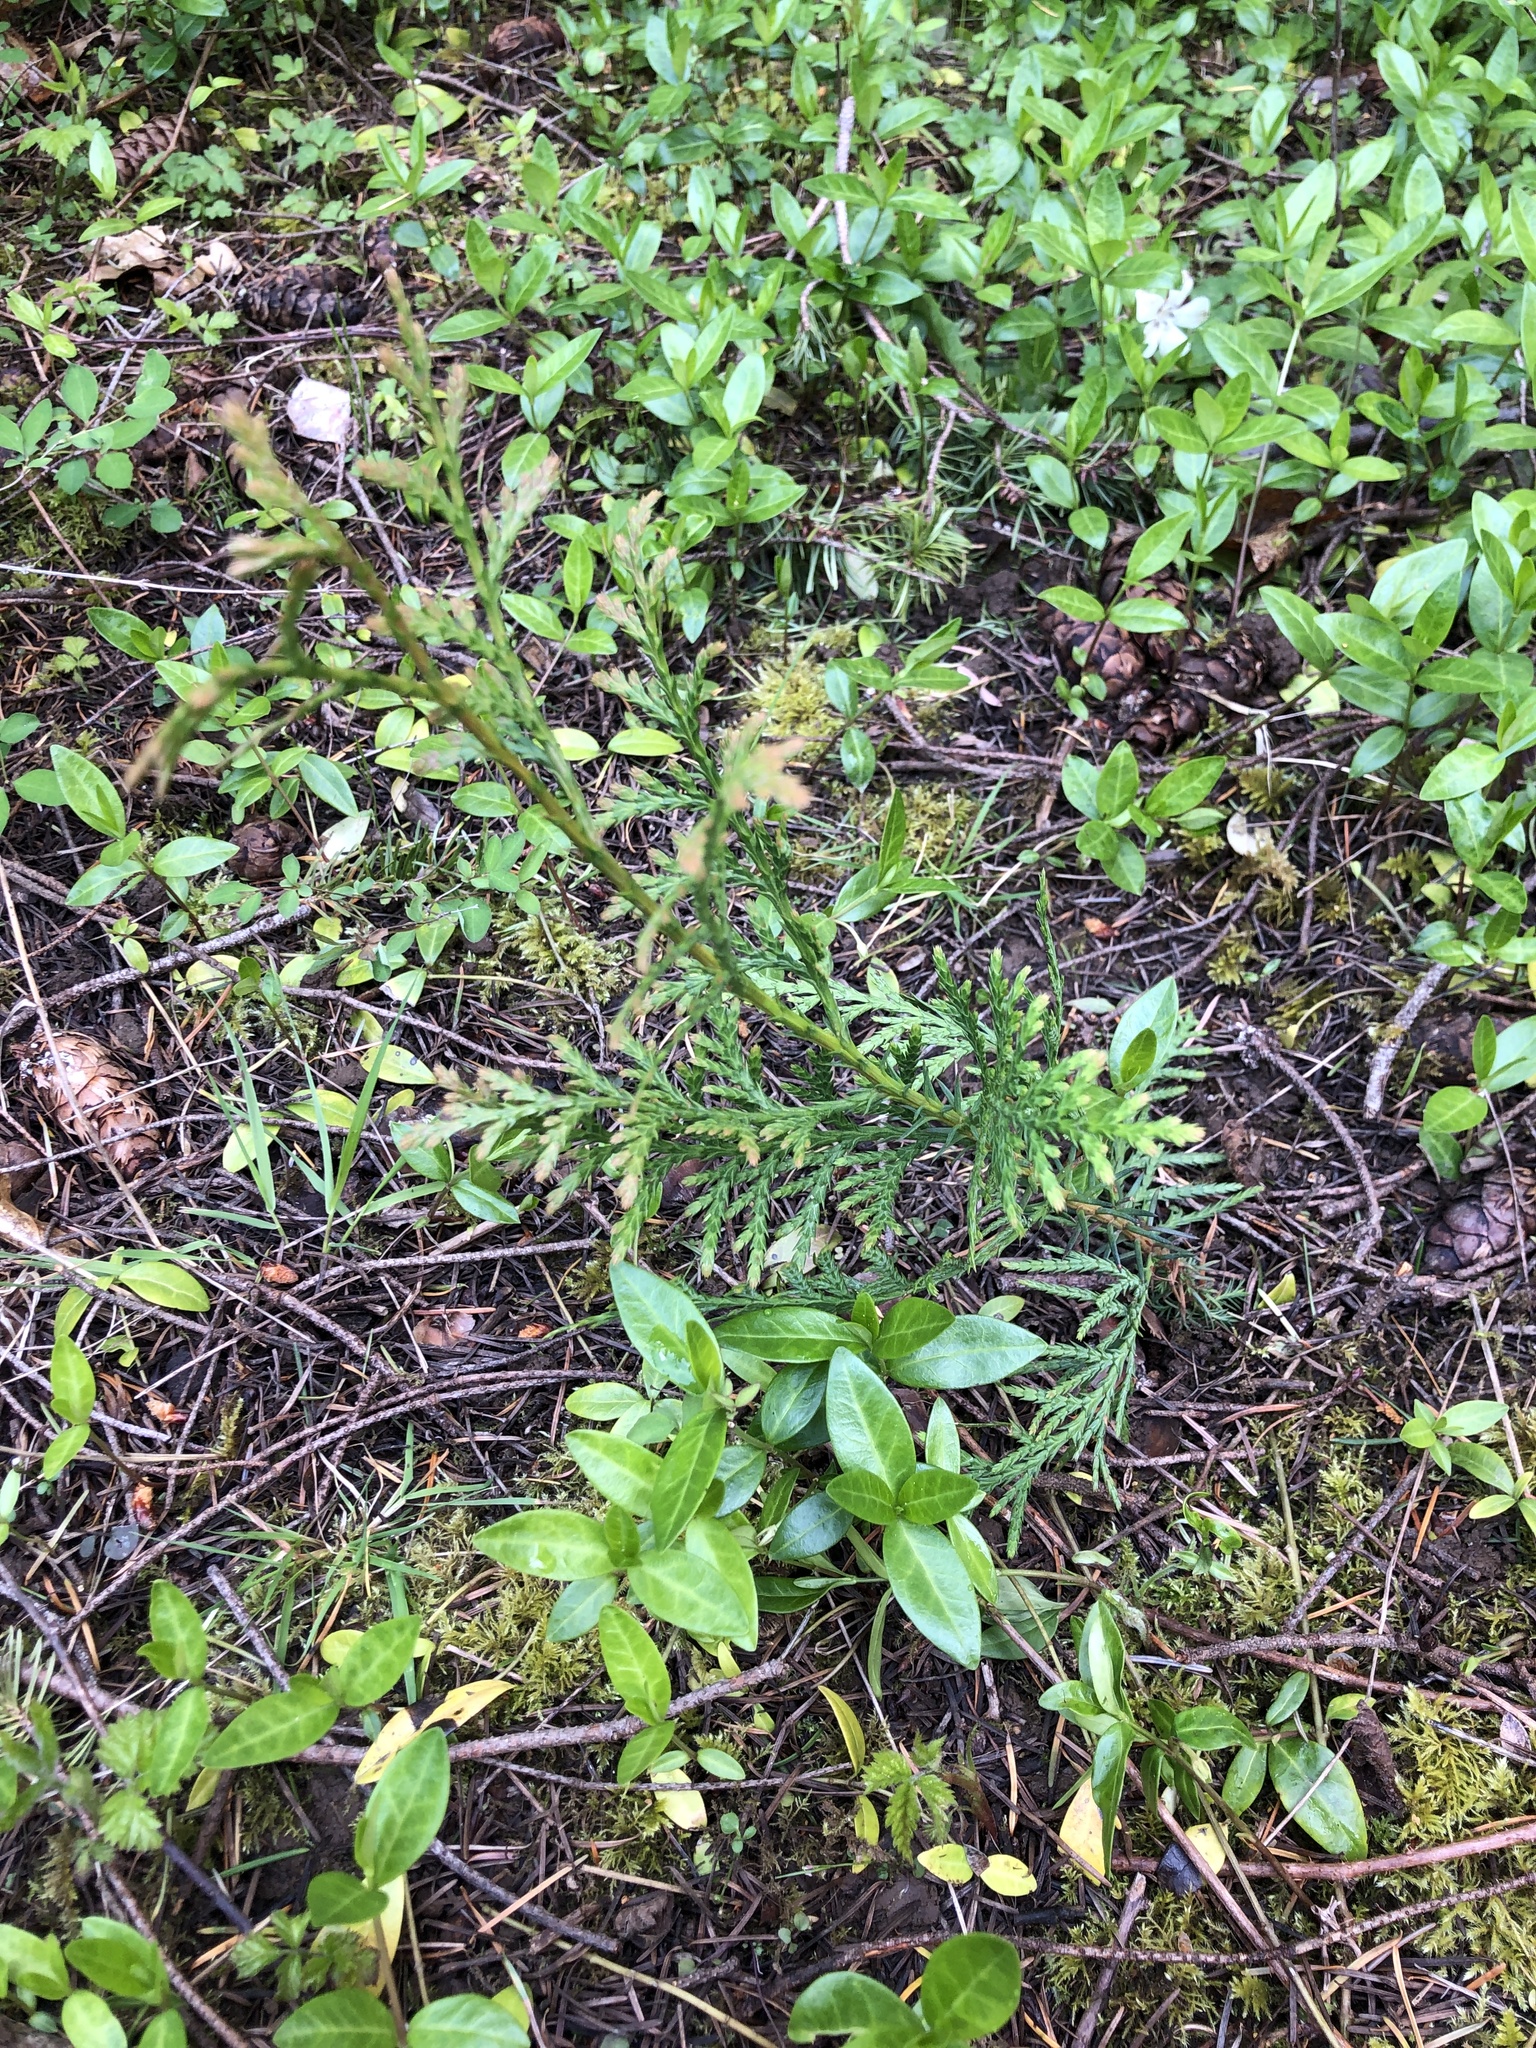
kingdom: Plantae
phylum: Tracheophyta
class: Pinopsida
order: Pinales
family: Cupressaceae
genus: Thuja
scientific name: Thuja plicata
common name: Western red-cedar
